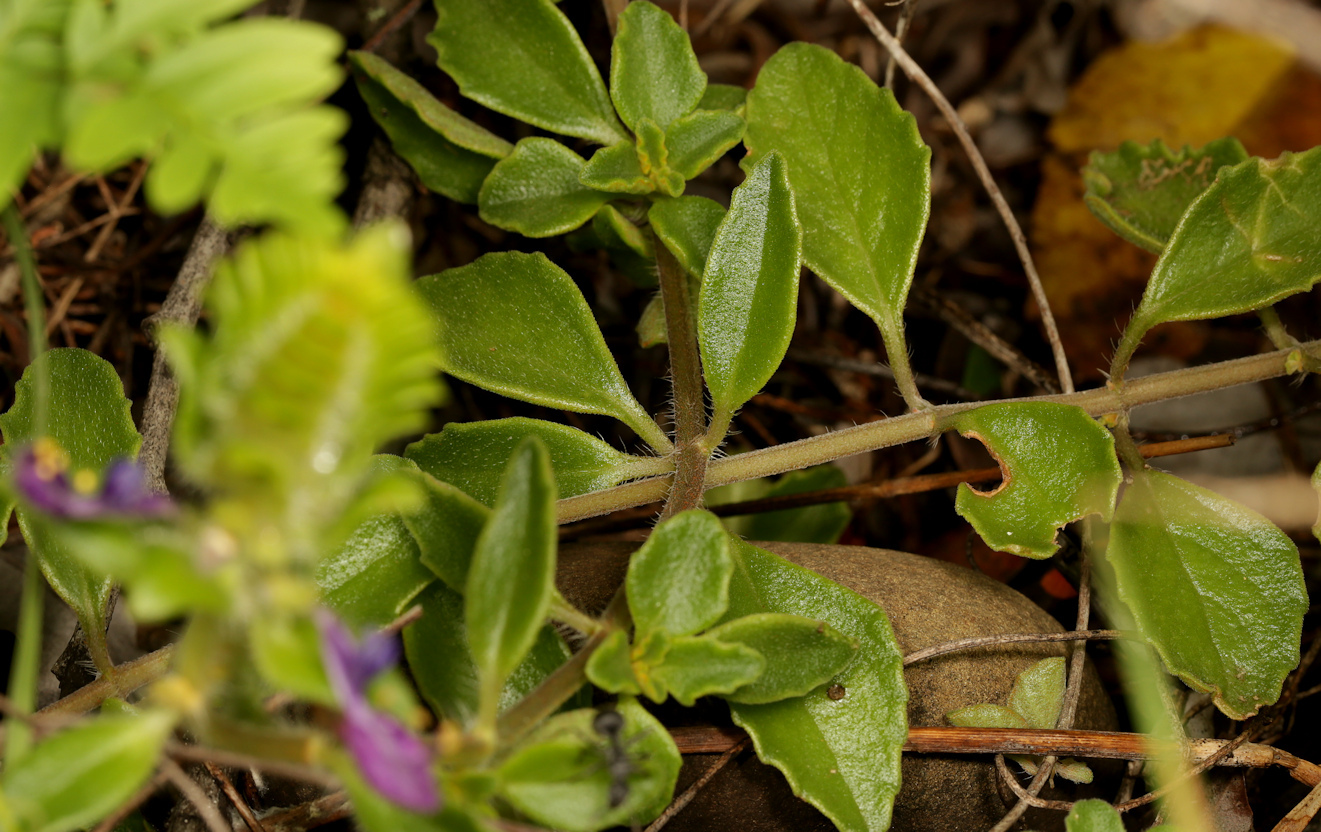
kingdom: Plantae
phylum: Tracheophyta
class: Magnoliopsida
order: Lamiales
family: Lamiaceae
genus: Coleus
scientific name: Coleus lasianthus
